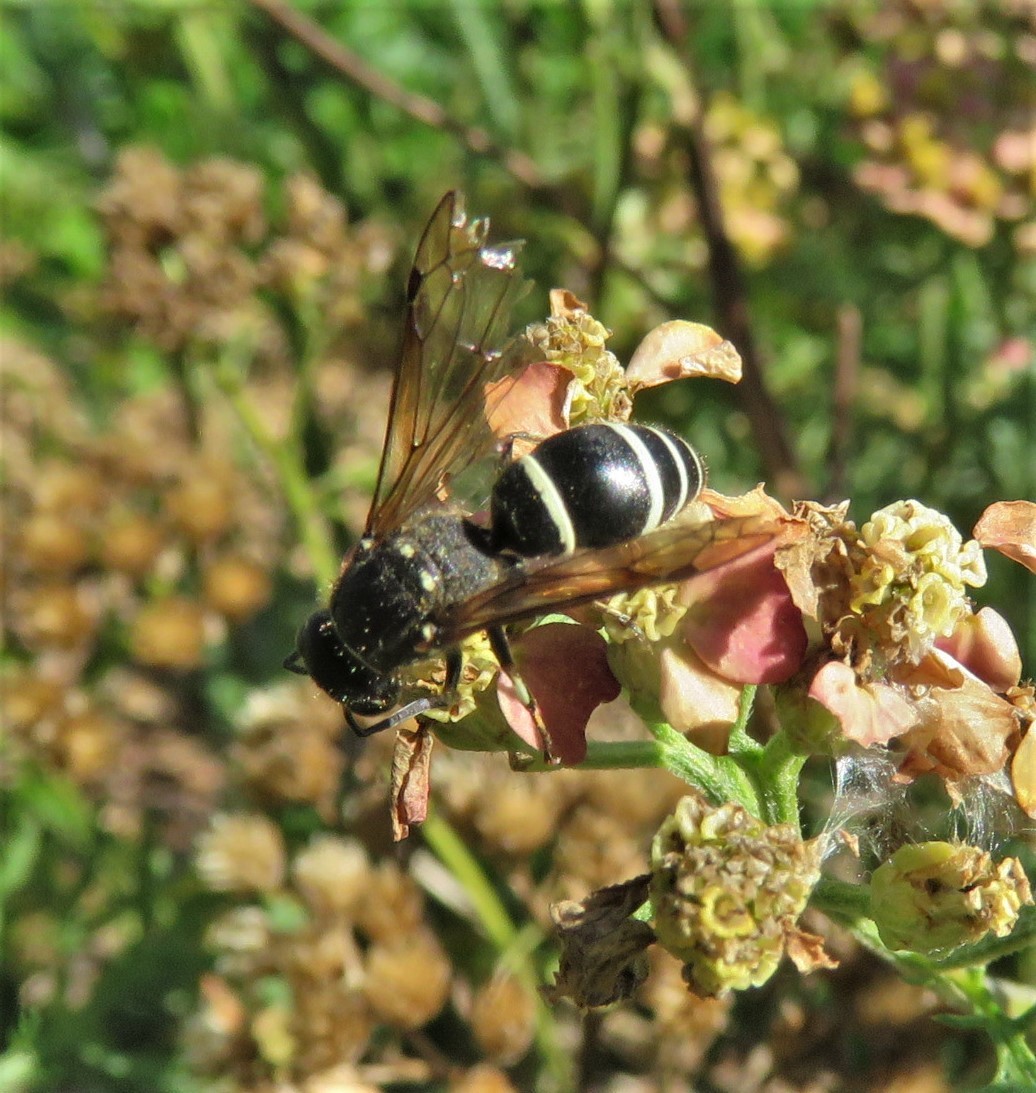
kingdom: Animalia
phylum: Arthropoda
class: Insecta
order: Hymenoptera
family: Vespidae
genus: Ancistrocerus
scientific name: Ancistrocerus
